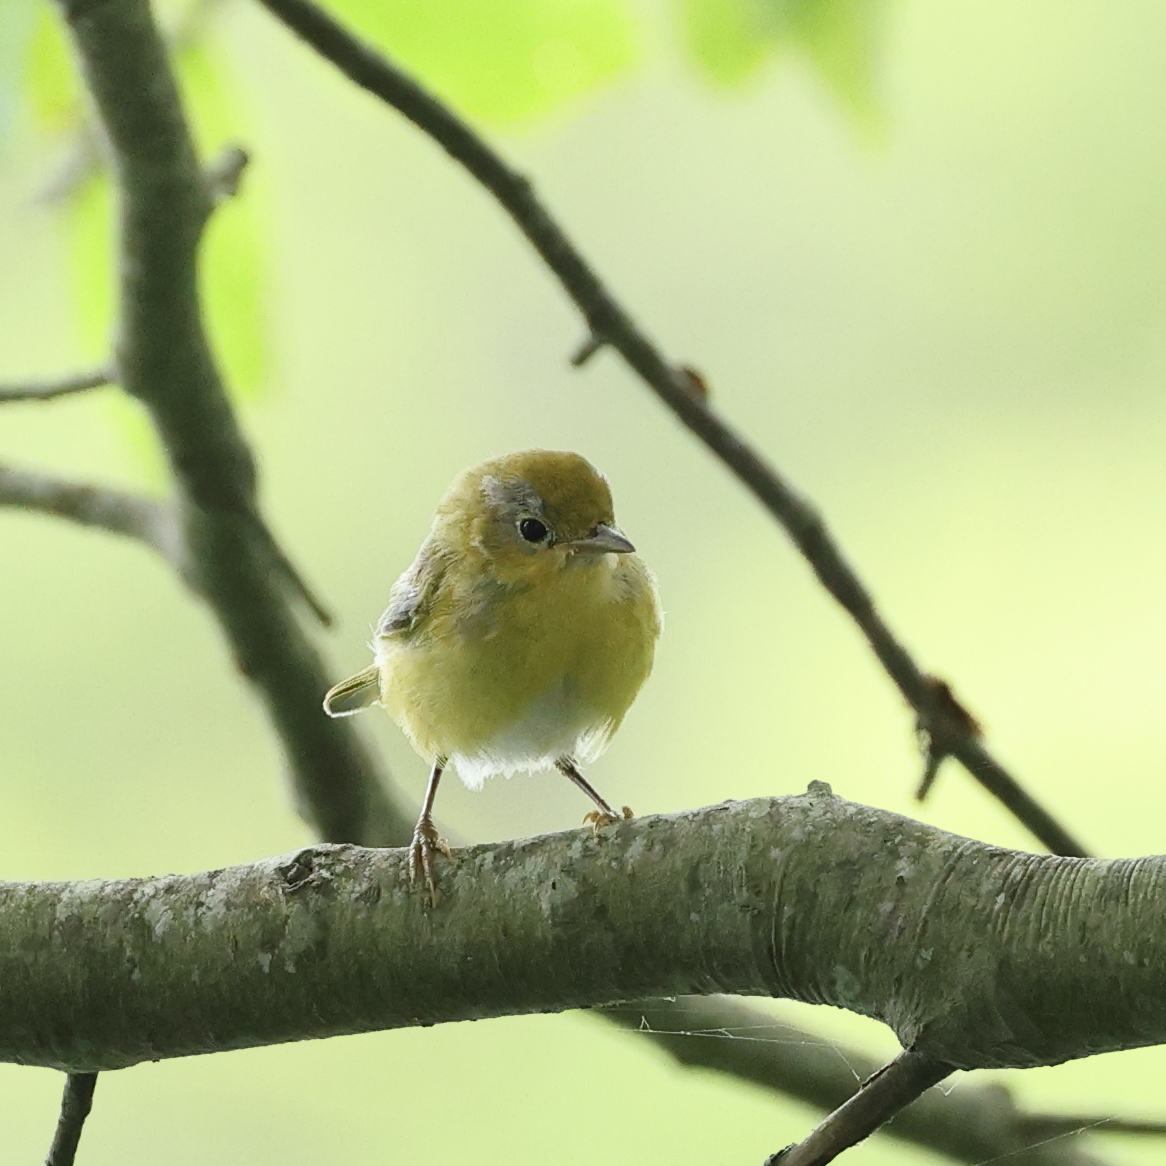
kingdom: Animalia
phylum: Chordata
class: Aves
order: Passeriformes
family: Parulidae
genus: Setophaga
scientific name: Setophaga pinus
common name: Pine warbler
